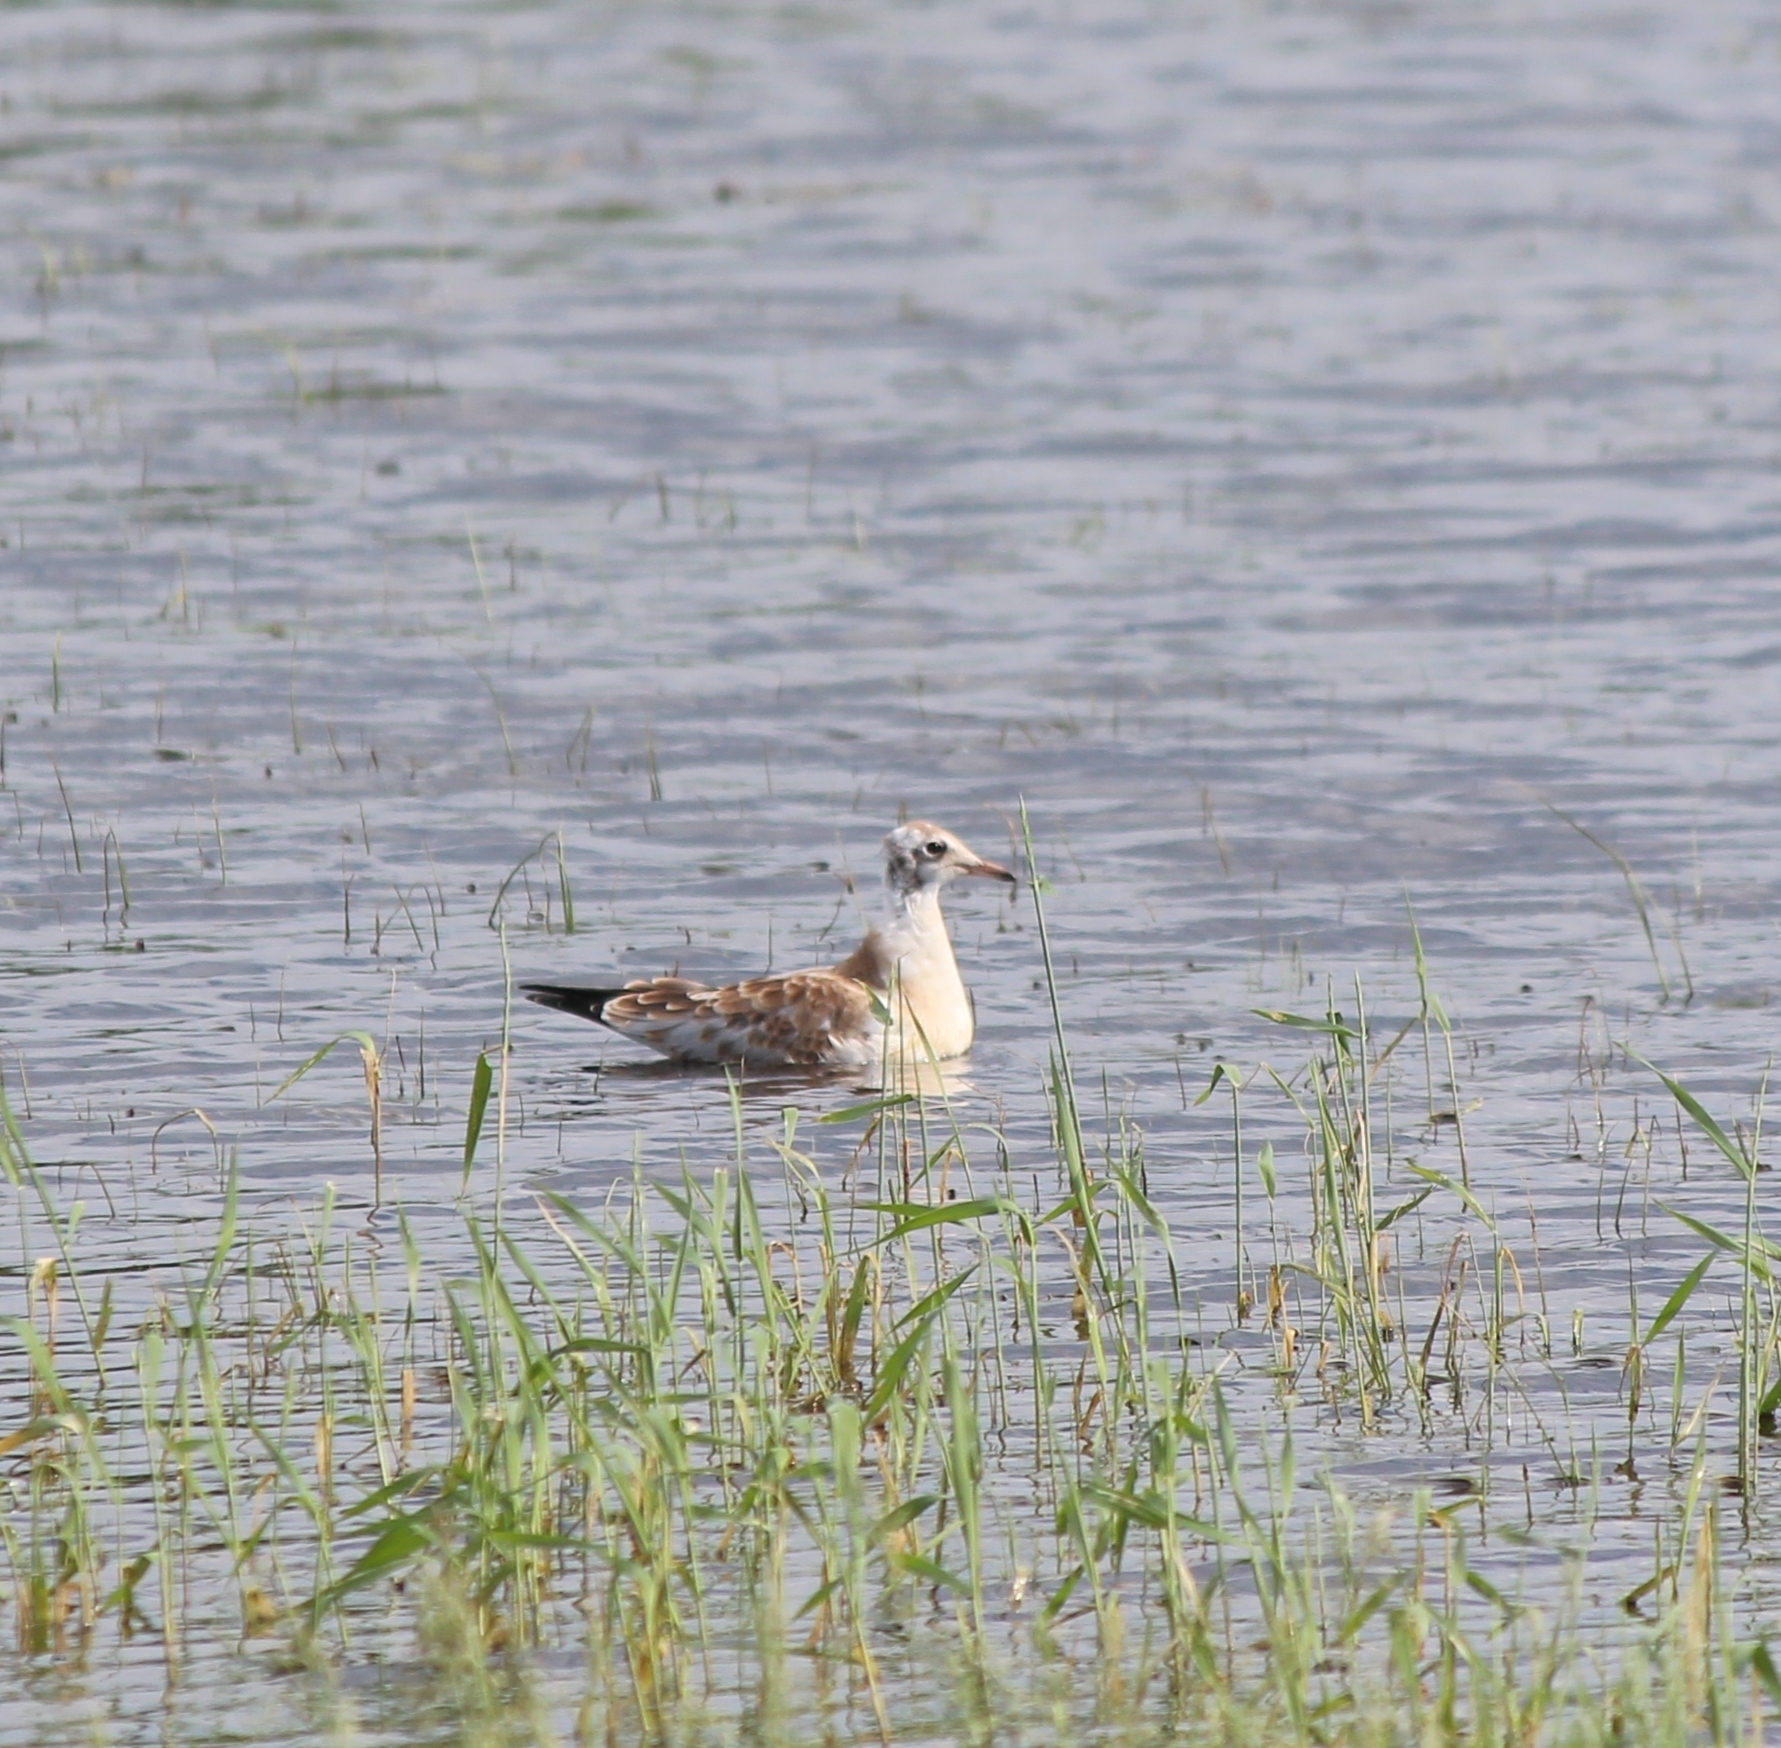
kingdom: Animalia
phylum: Chordata
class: Aves
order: Charadriiformes
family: Laridae
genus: Chroicocephalus
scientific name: Chroicocephalus ridibundus
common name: Black-headed gull
